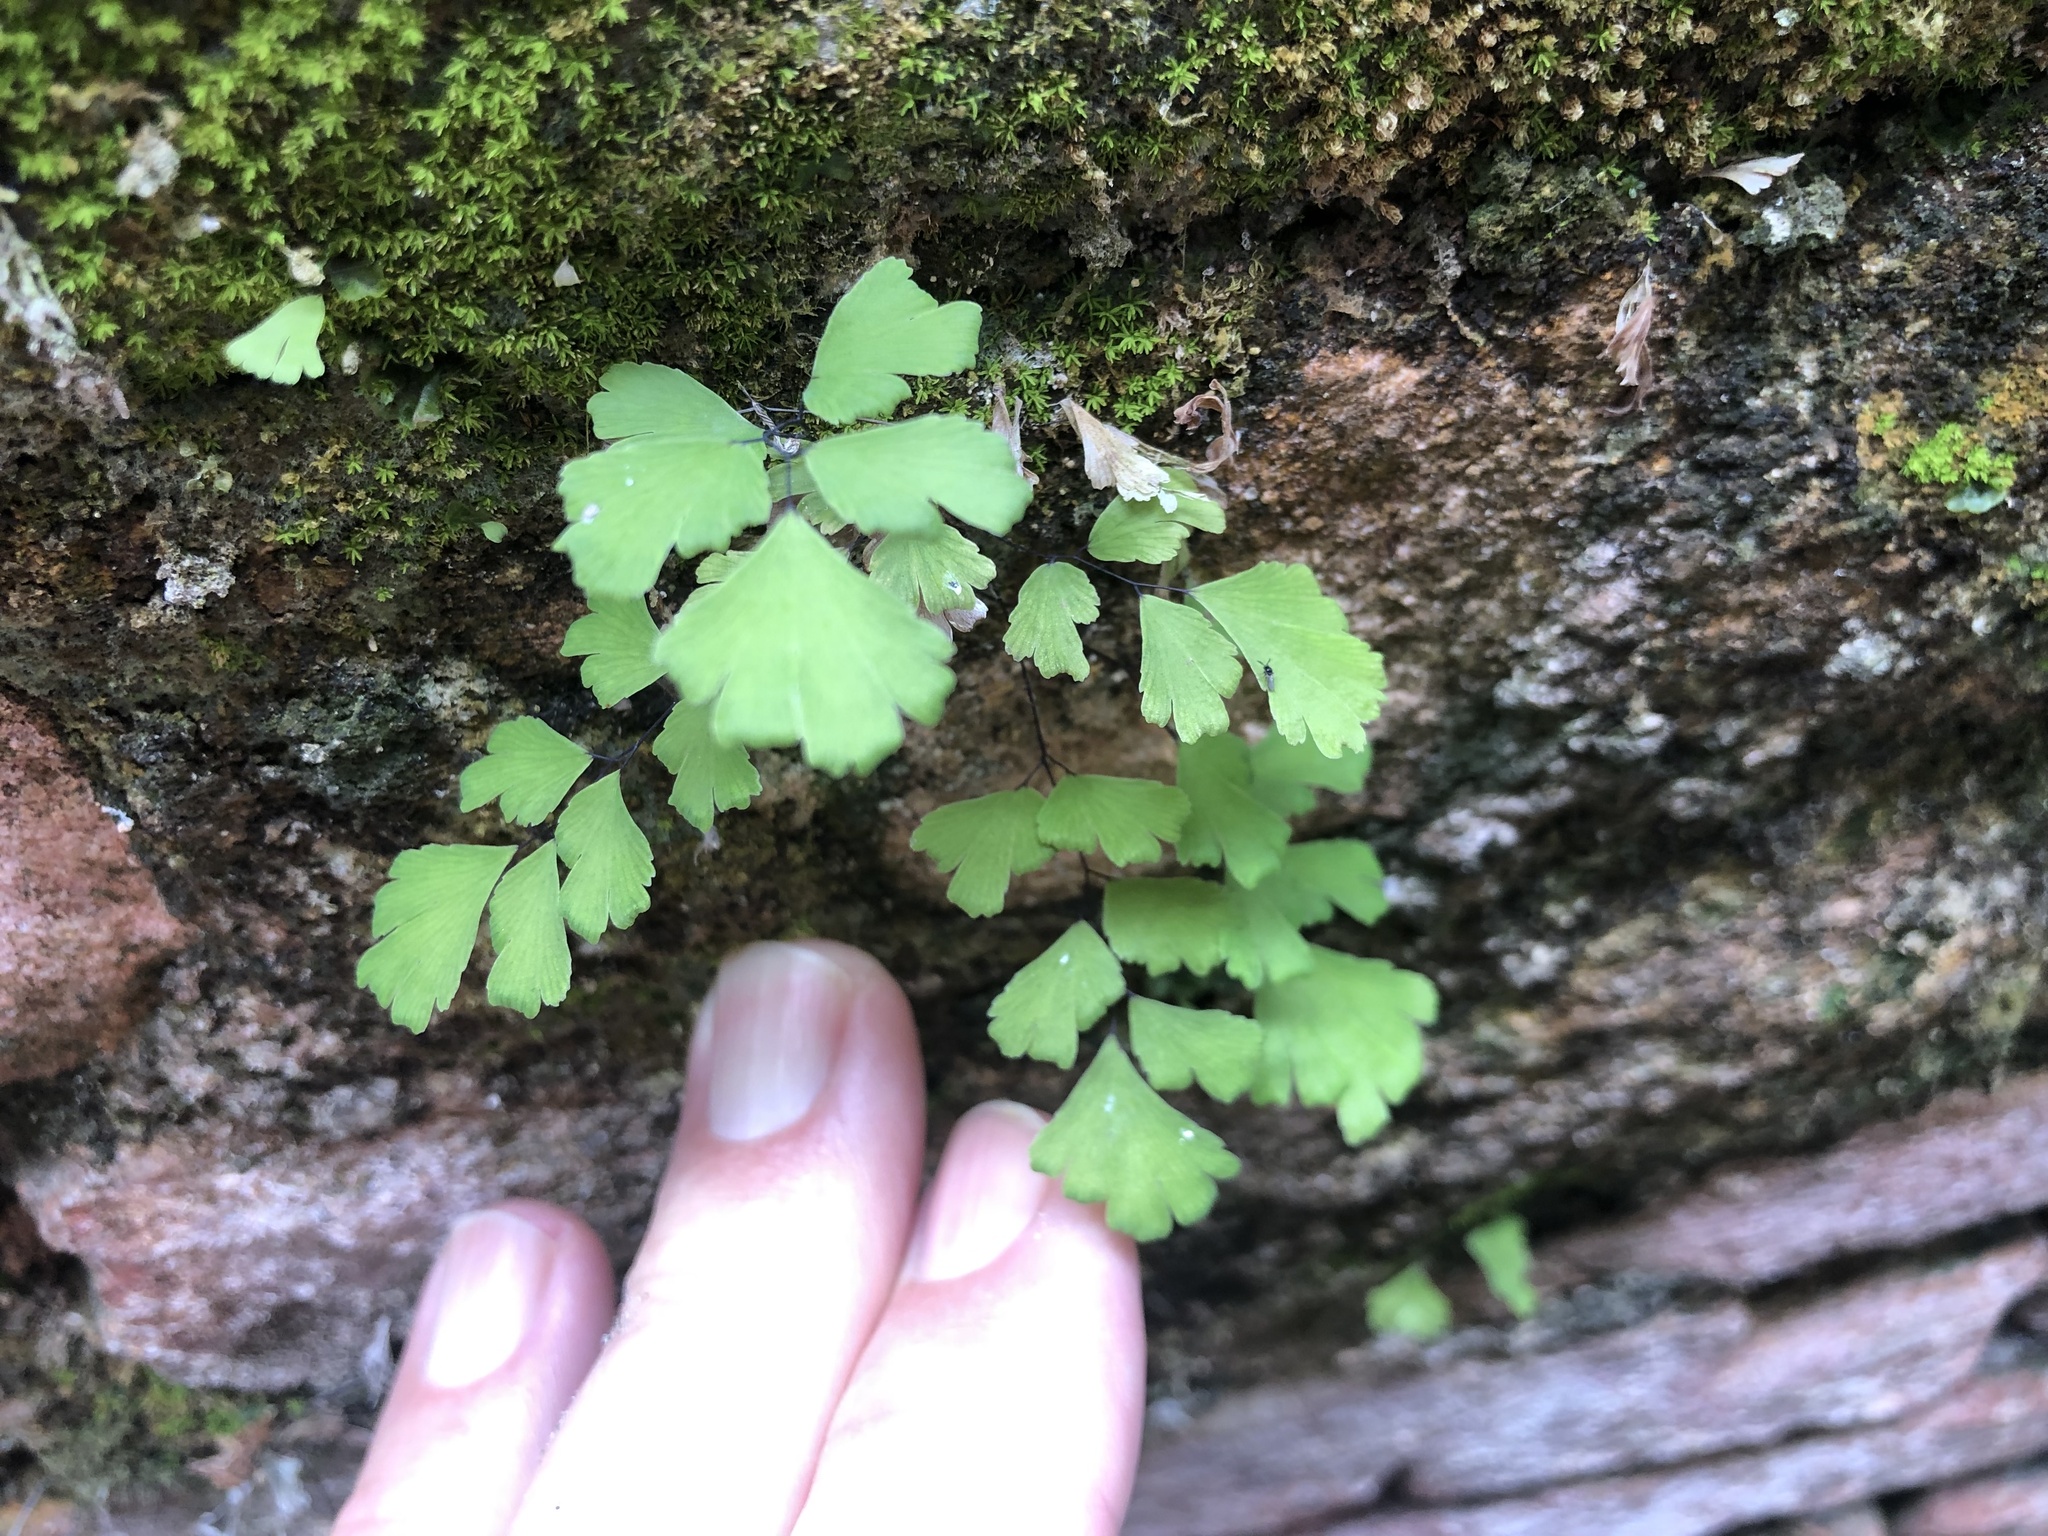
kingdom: Plantae
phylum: Tracheophyta
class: Polypodiopsida
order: Polypodiales
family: Pteridaceae
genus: Adiantum
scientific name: Adiantum capillus-veneris
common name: Maidenhair fern
